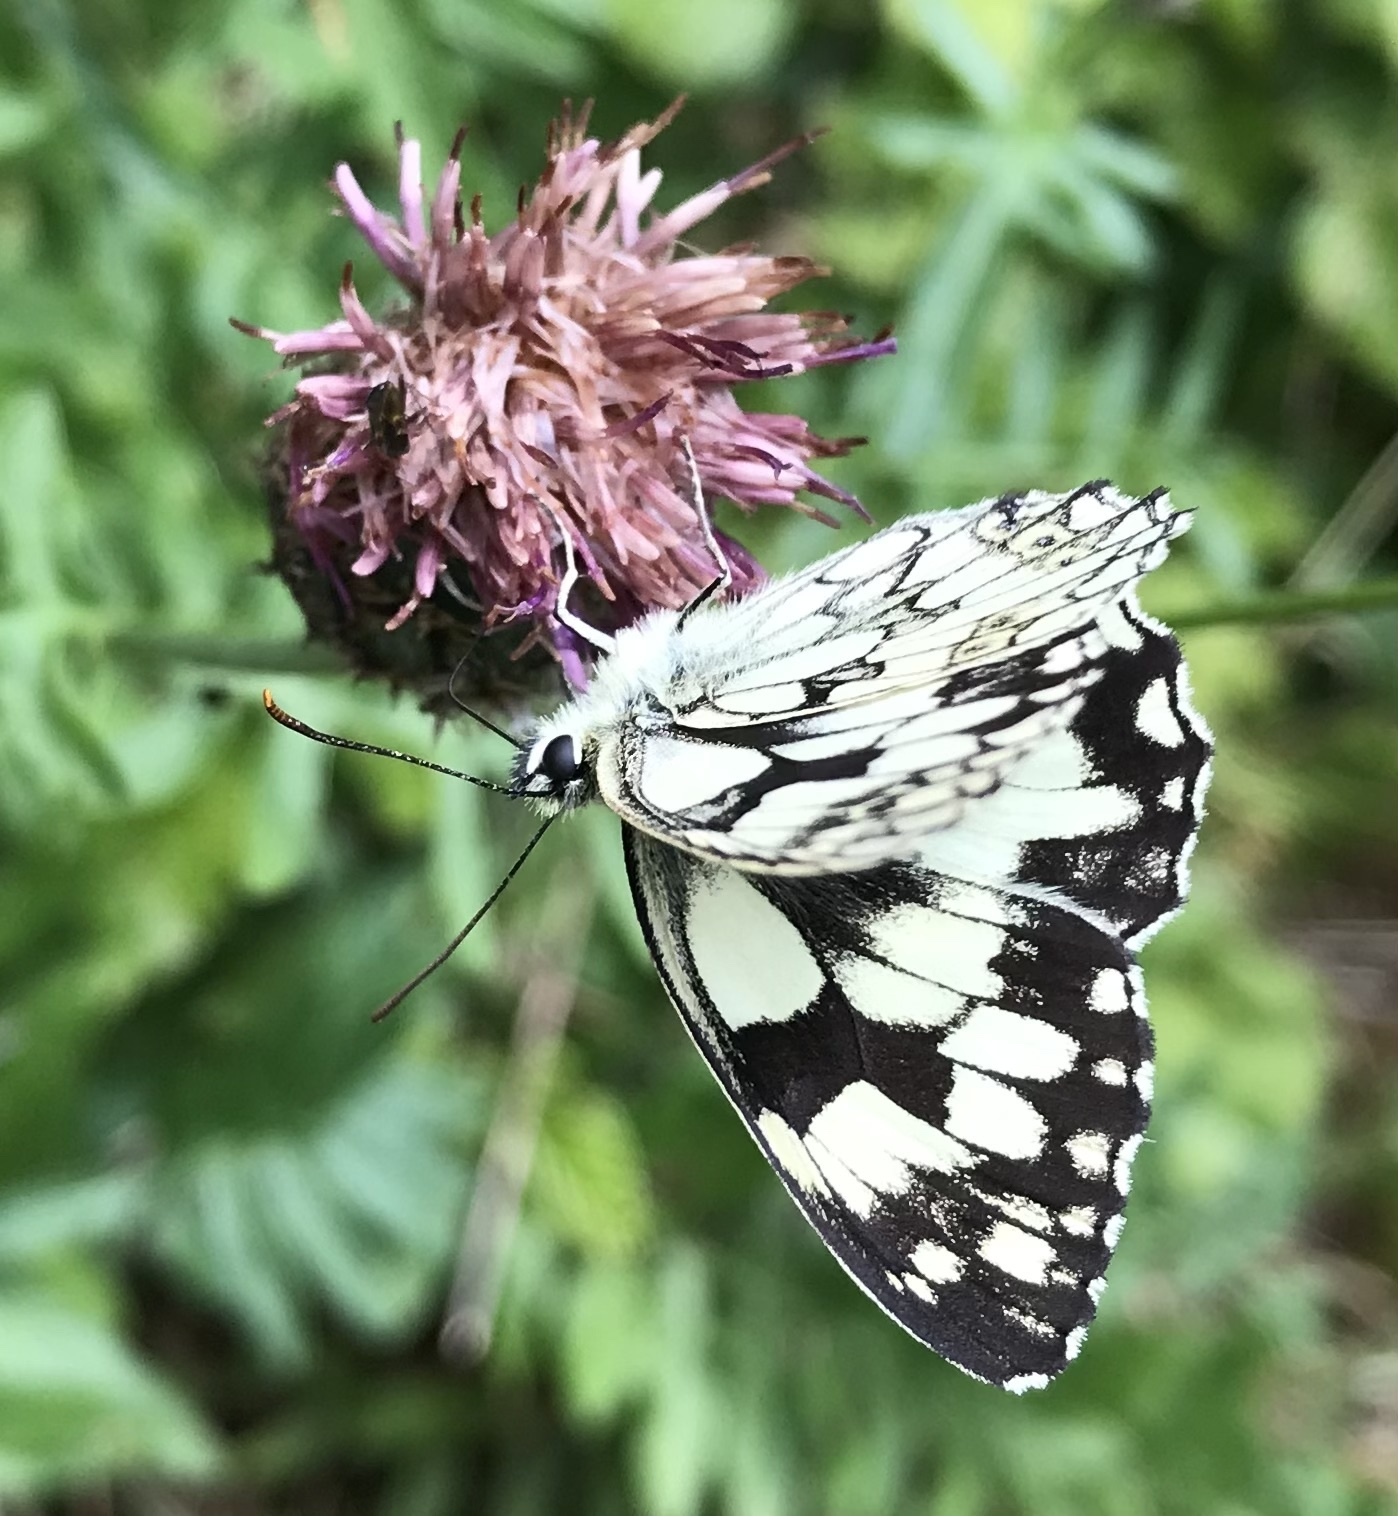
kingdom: Animalia
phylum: Arthropoda
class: Insecta
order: Lepidoptera
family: Nymphalidae
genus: Melanargia
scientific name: Melanargia galathea
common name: Marbled white
